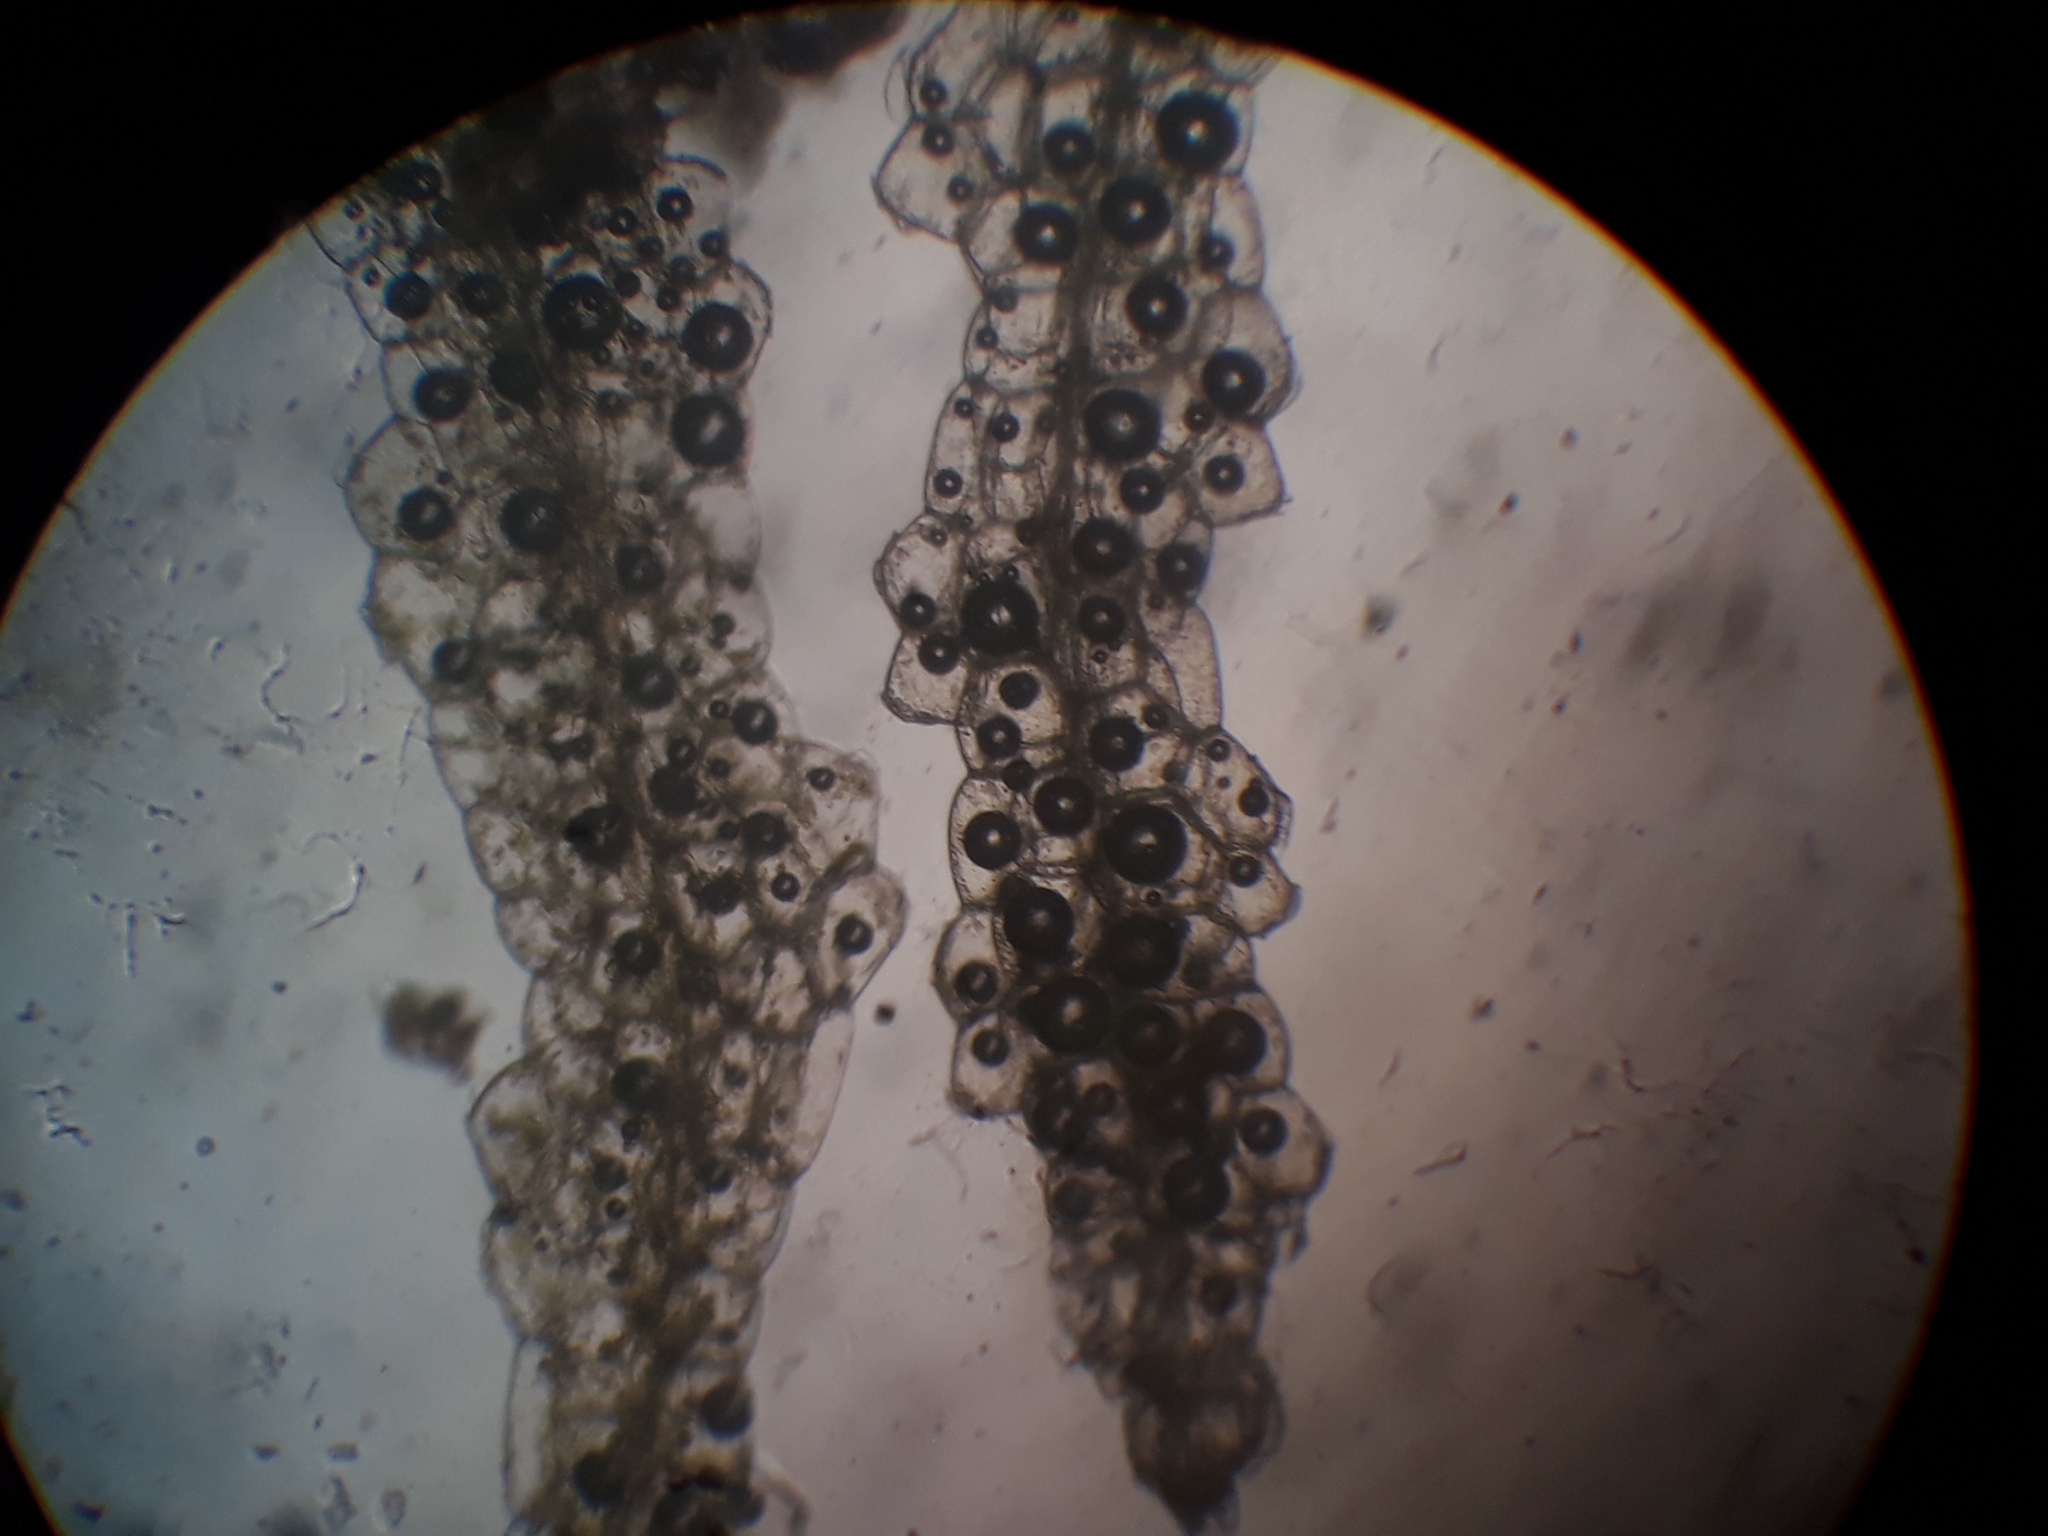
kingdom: Plantae
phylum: Marchantiophyta
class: Jungermanniopsida
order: Jungermanniales
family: Lepidoziaceae
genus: Zoopsis
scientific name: Zoopsis argentea
